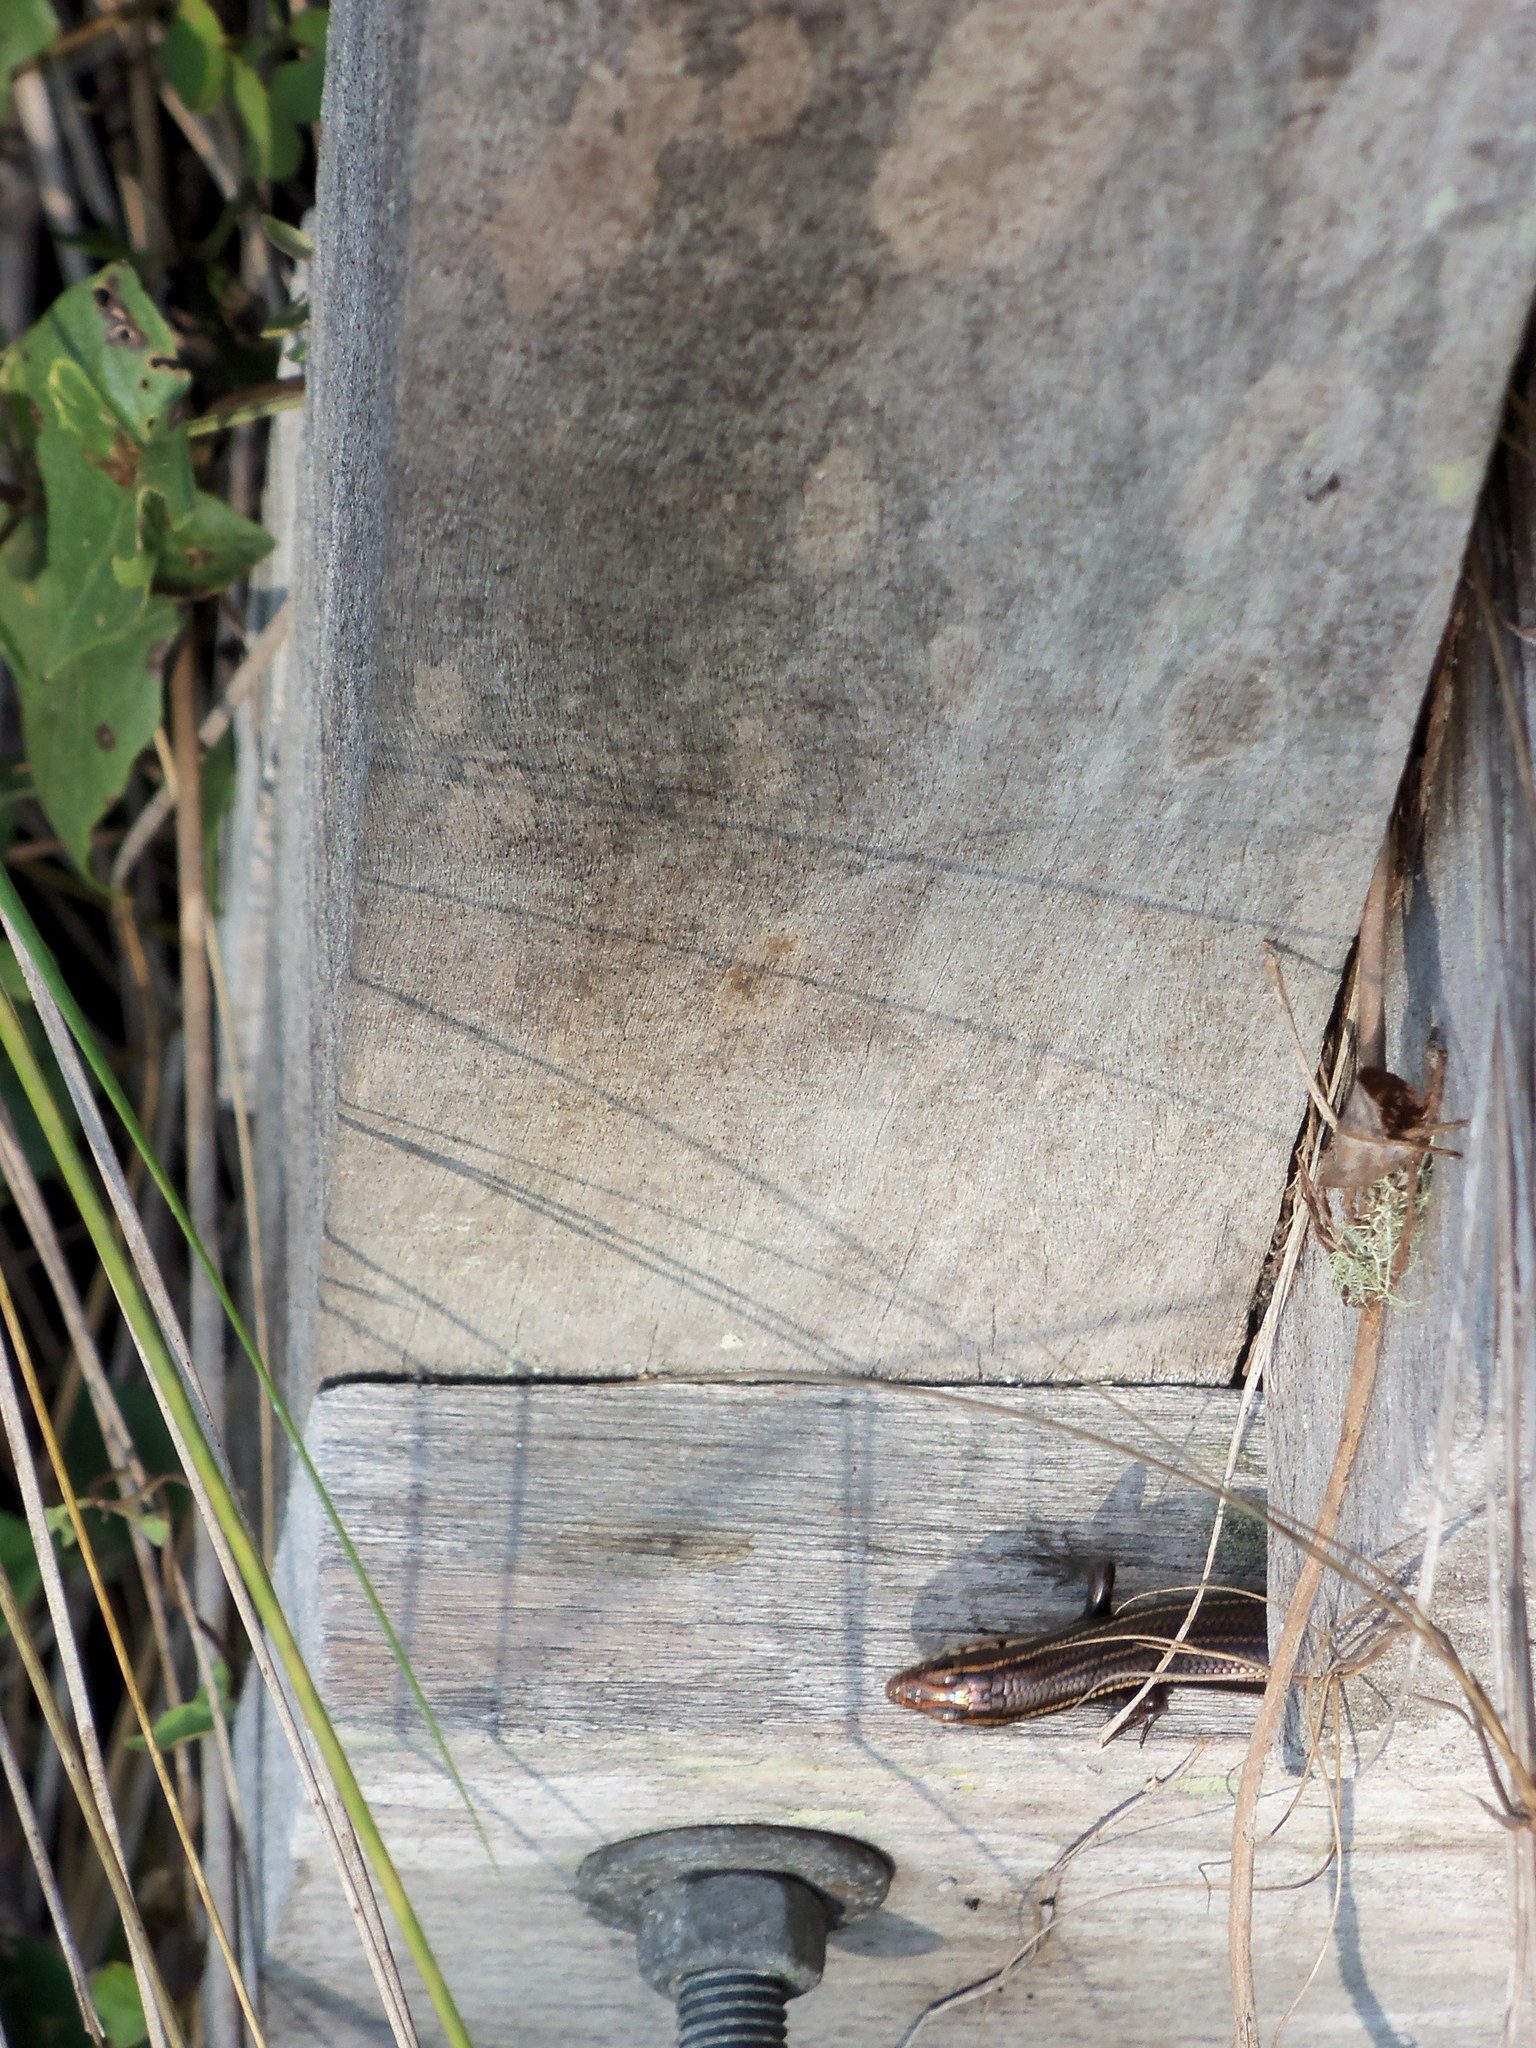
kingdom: Animalia
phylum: Chordata
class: Squamata
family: Scincidae
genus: Plestiodon
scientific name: Plestiodon inexpectatus
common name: Southeastern five-lined skink
